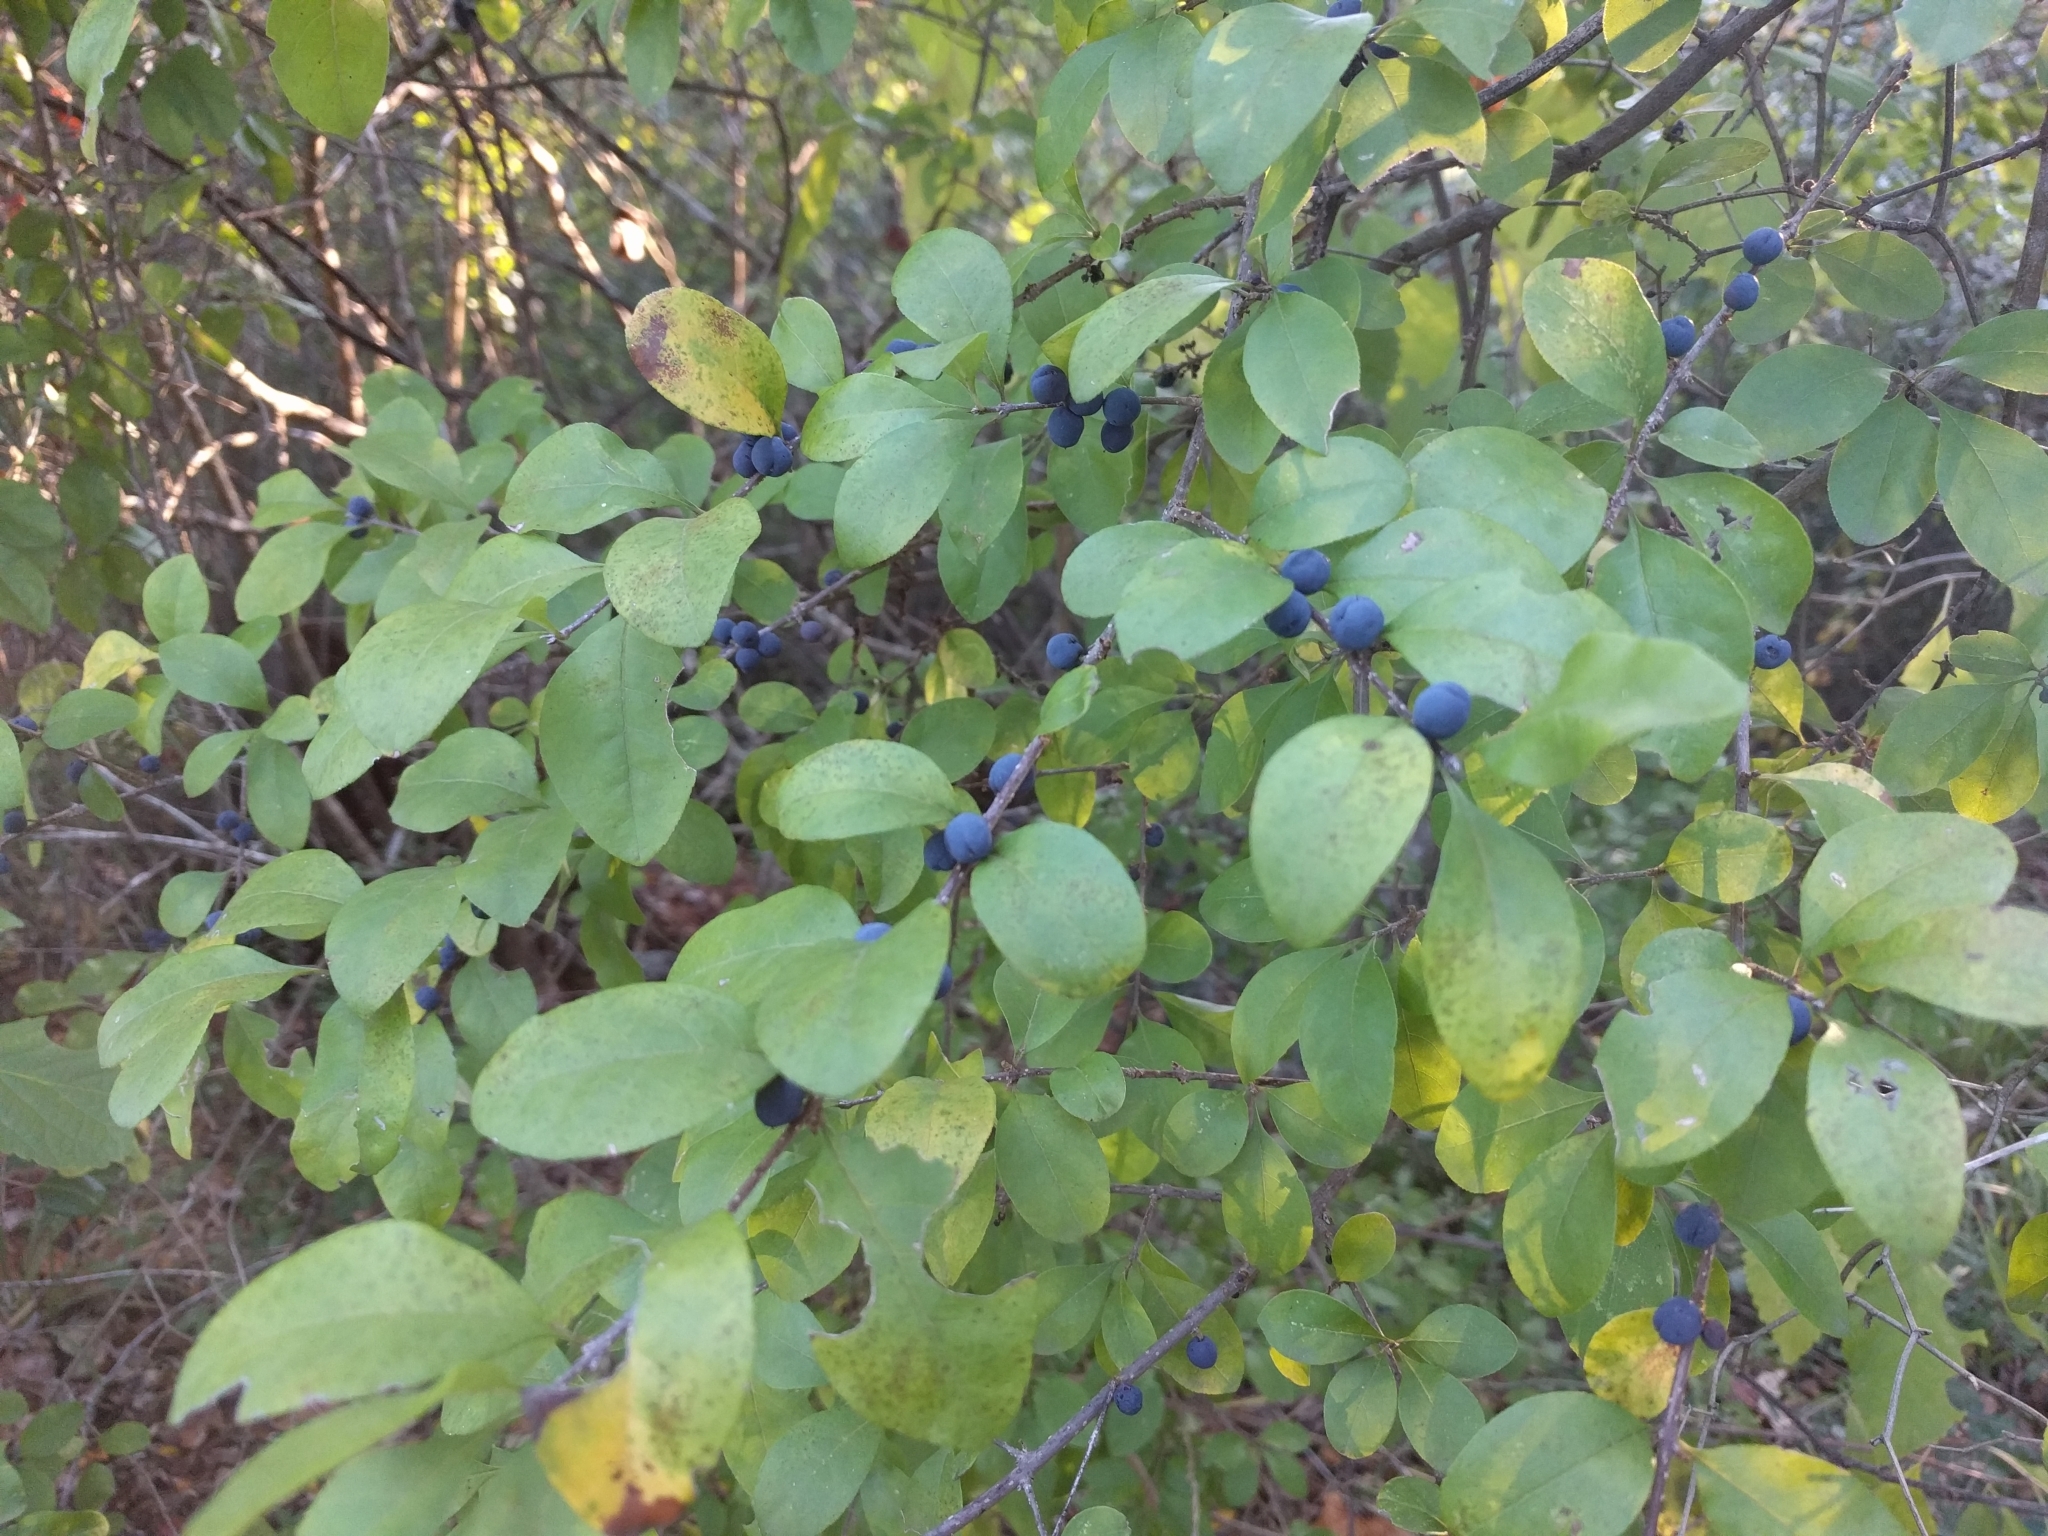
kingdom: Plantae
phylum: Tracheophyta
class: Magnoliopsida
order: Lamiales
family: Oleaceae
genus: Forestiera
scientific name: Forestiera ligustrina
